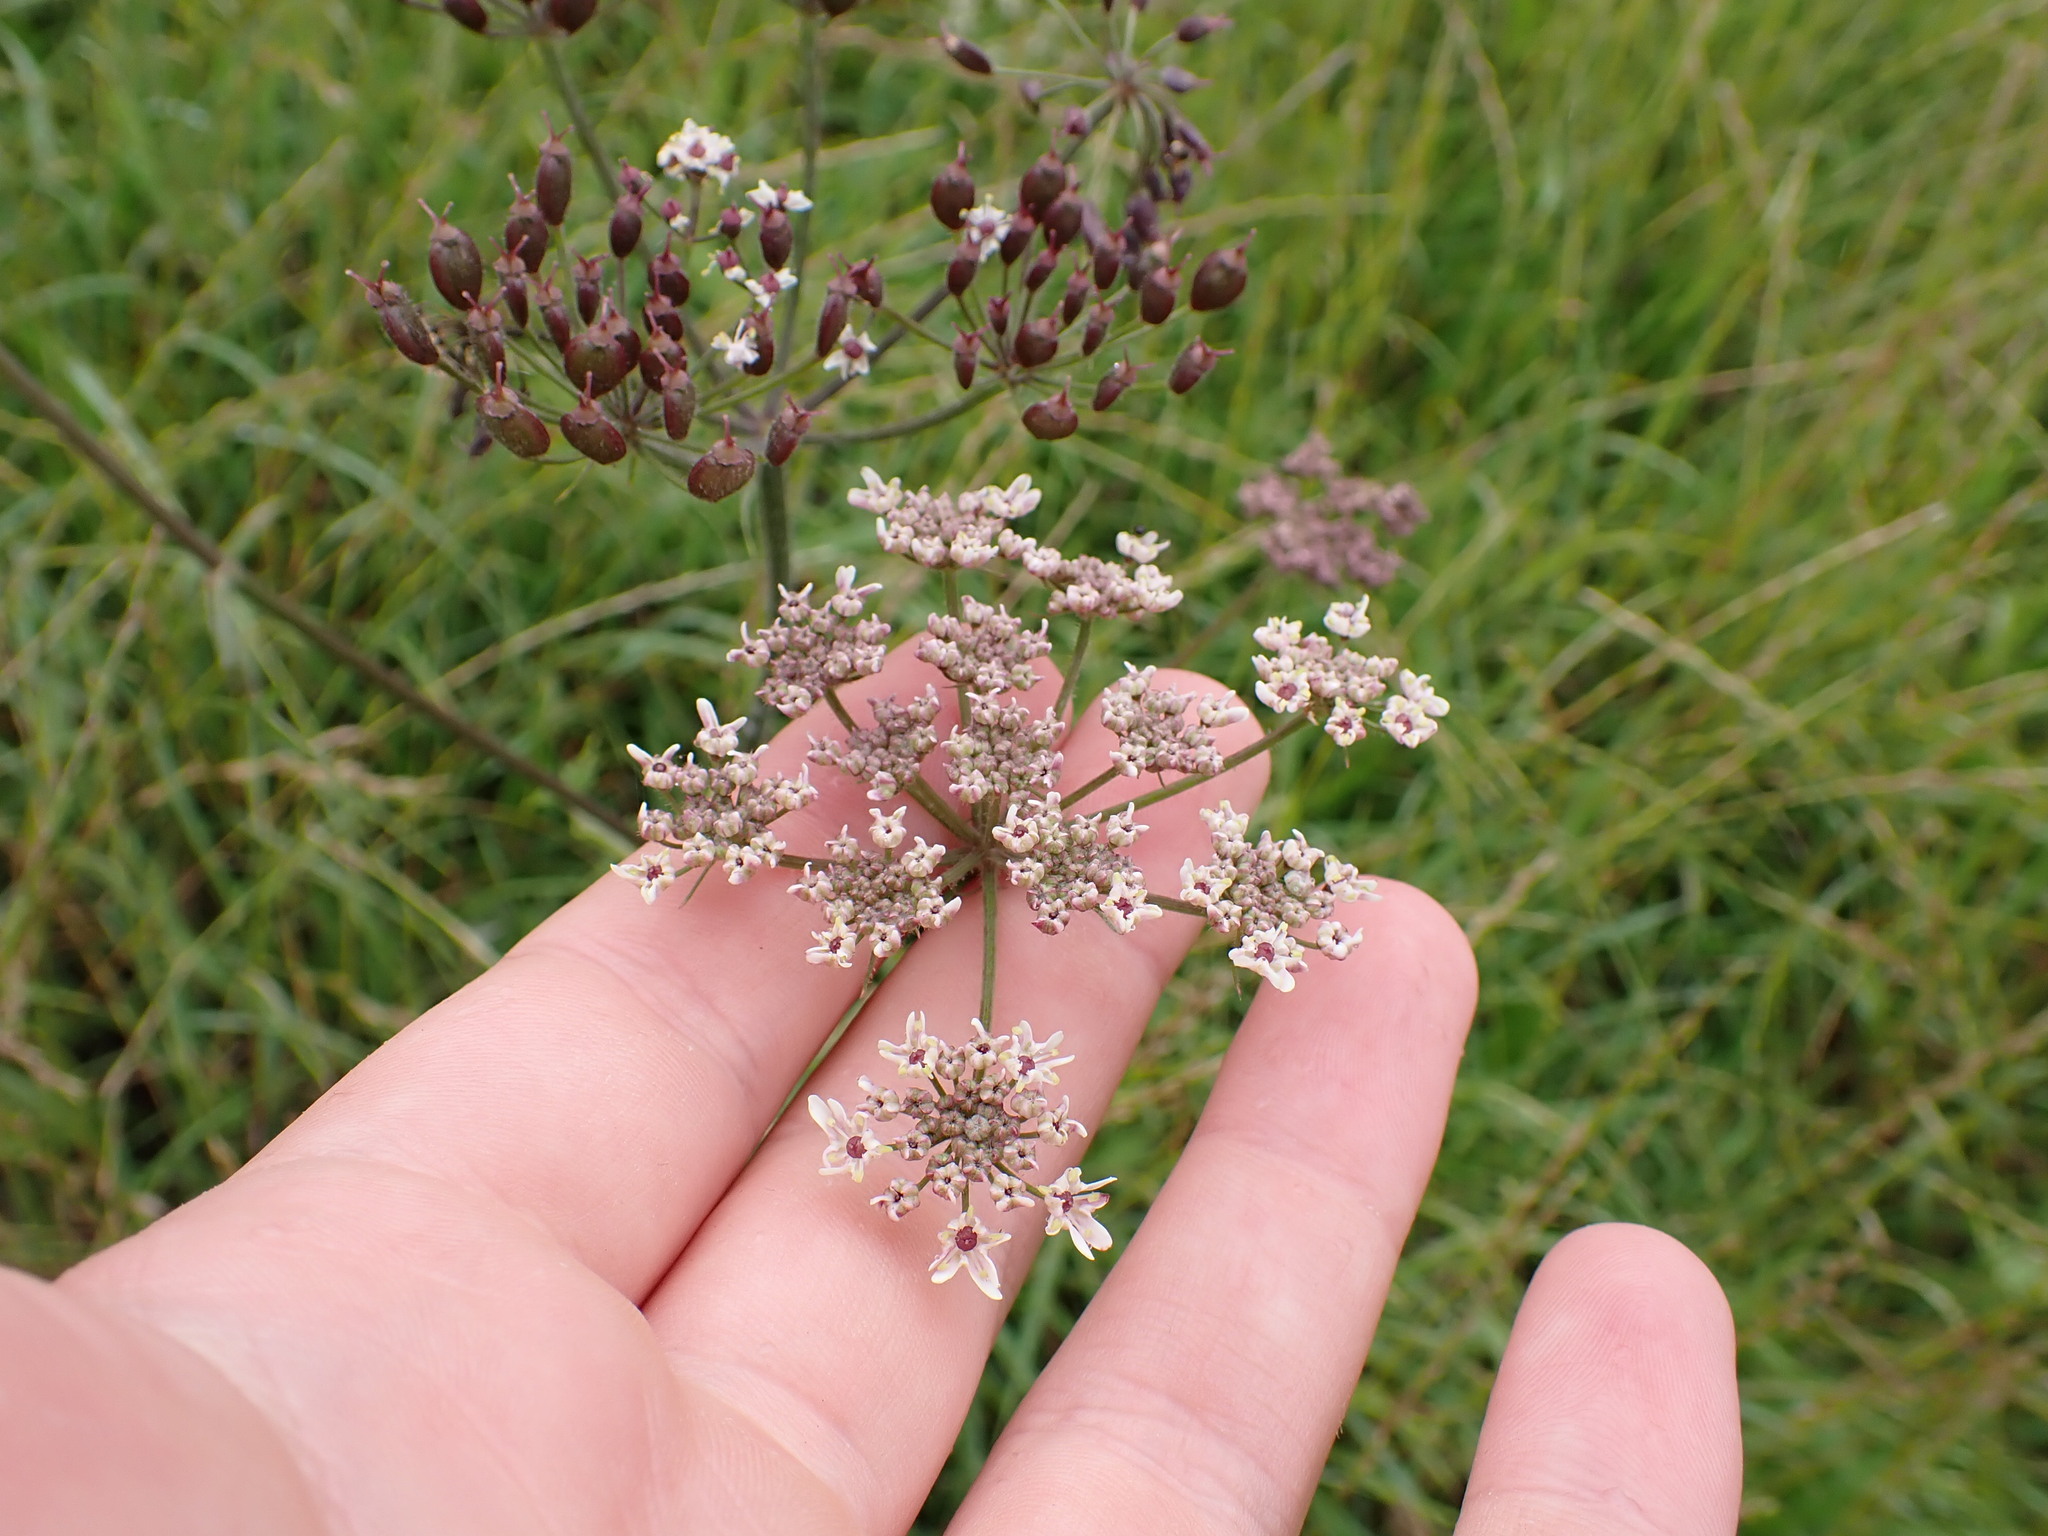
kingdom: Plantae
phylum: Tracheophyta
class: Magnoliopsida
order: Apiales
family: Apiaceae
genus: Heracleum
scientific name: Heracleum sphondylium
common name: Hogweed
